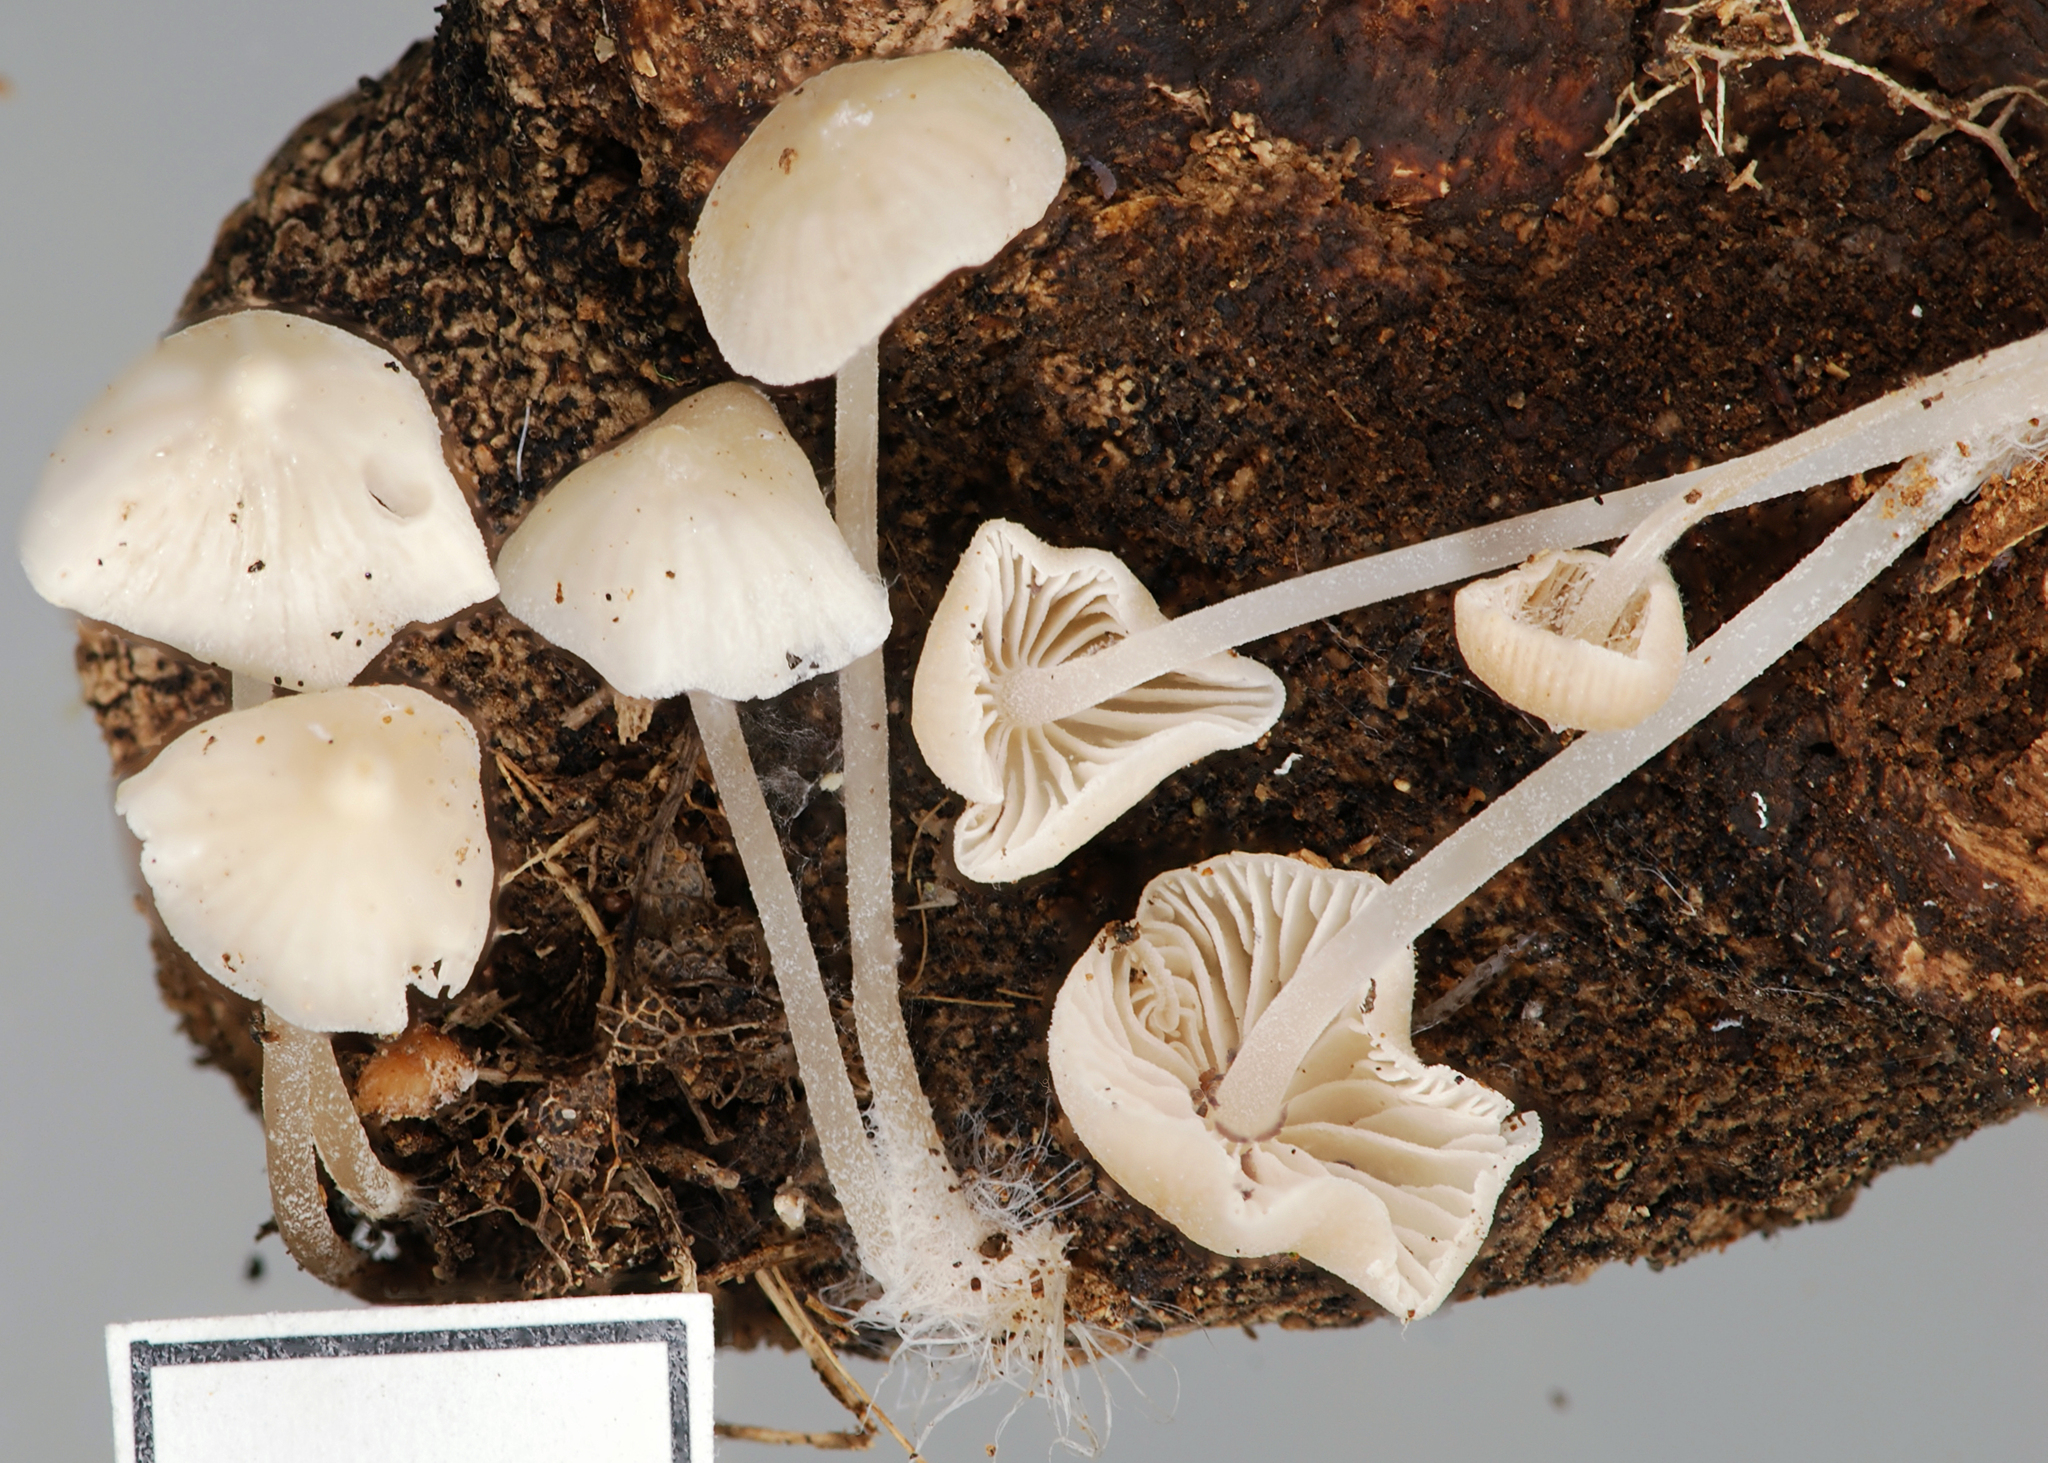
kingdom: Fungi
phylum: Basidiomycota
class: Agaricomycetes
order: Agaricales
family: Porotheleaceae
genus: Phloeomana
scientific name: Phloeomana minutula
